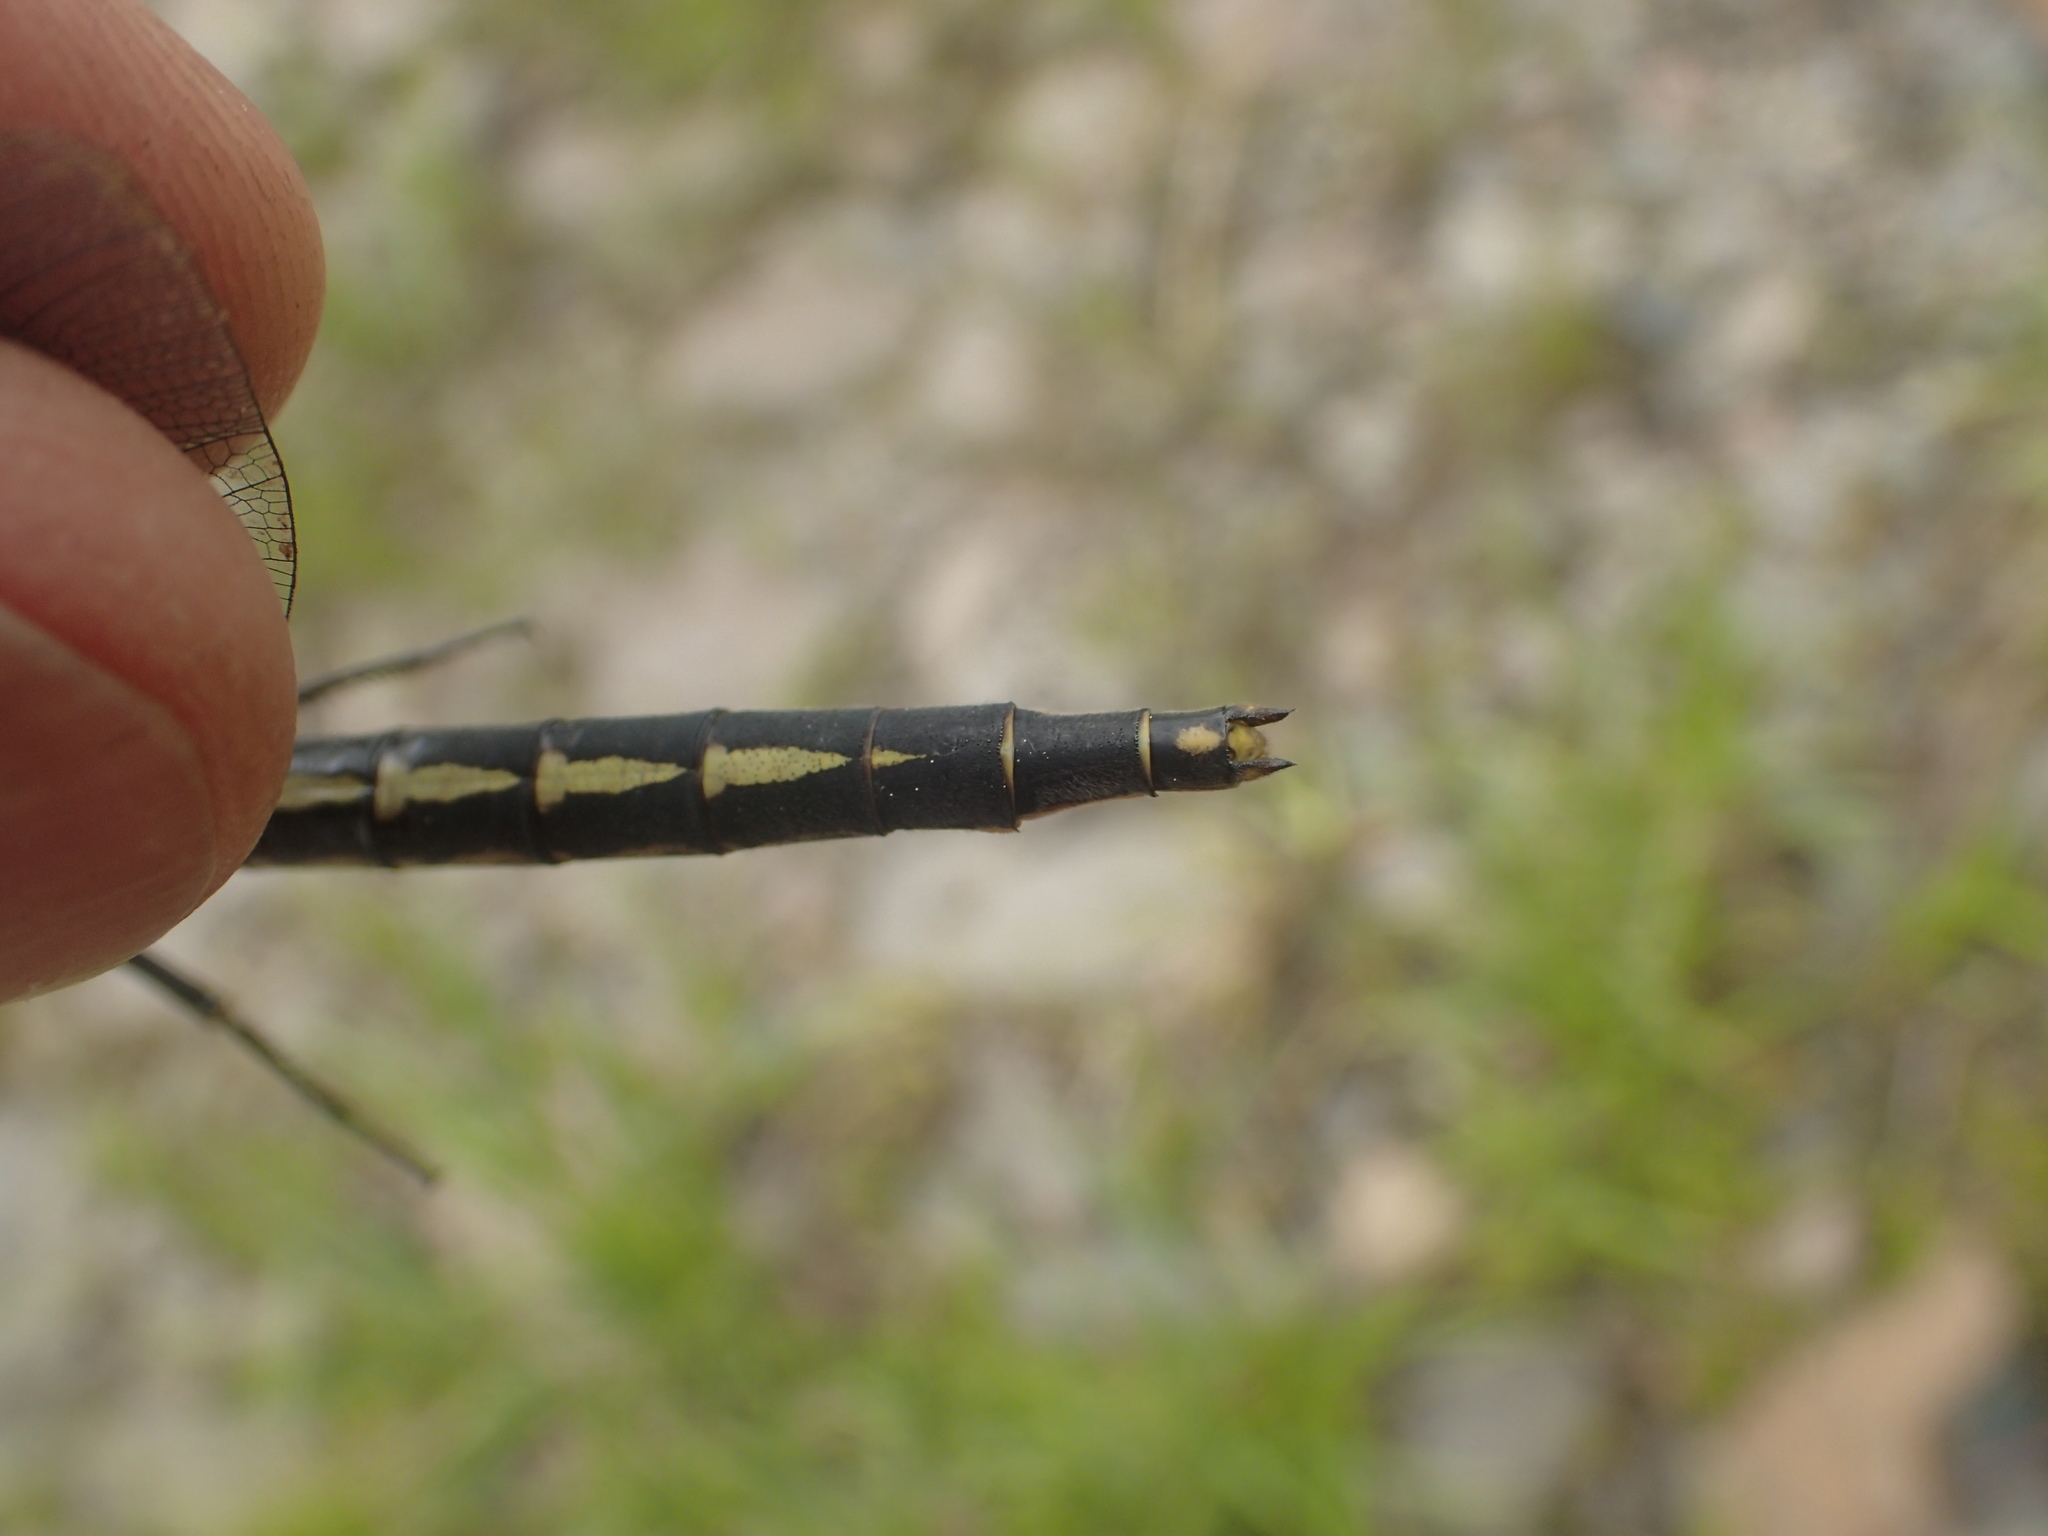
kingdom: Animalia
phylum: Arthropoda
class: Insecta
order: Odonata
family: Gomphidae
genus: Arigomphus
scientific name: Arigomphus cornutus
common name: Horned clubtail
